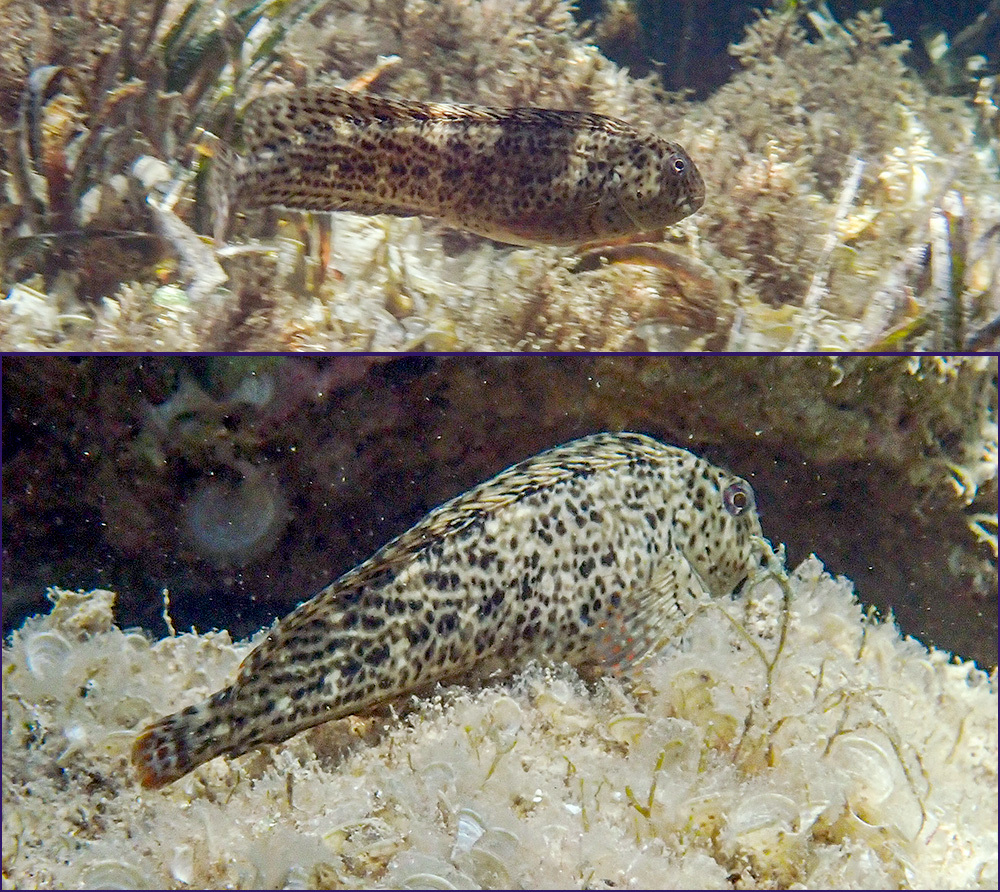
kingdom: Animalia
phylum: Chordata
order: Perciformes
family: Blenniidae
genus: Parablennius
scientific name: Parablennius sanguinolentus
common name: Black sea blenny
